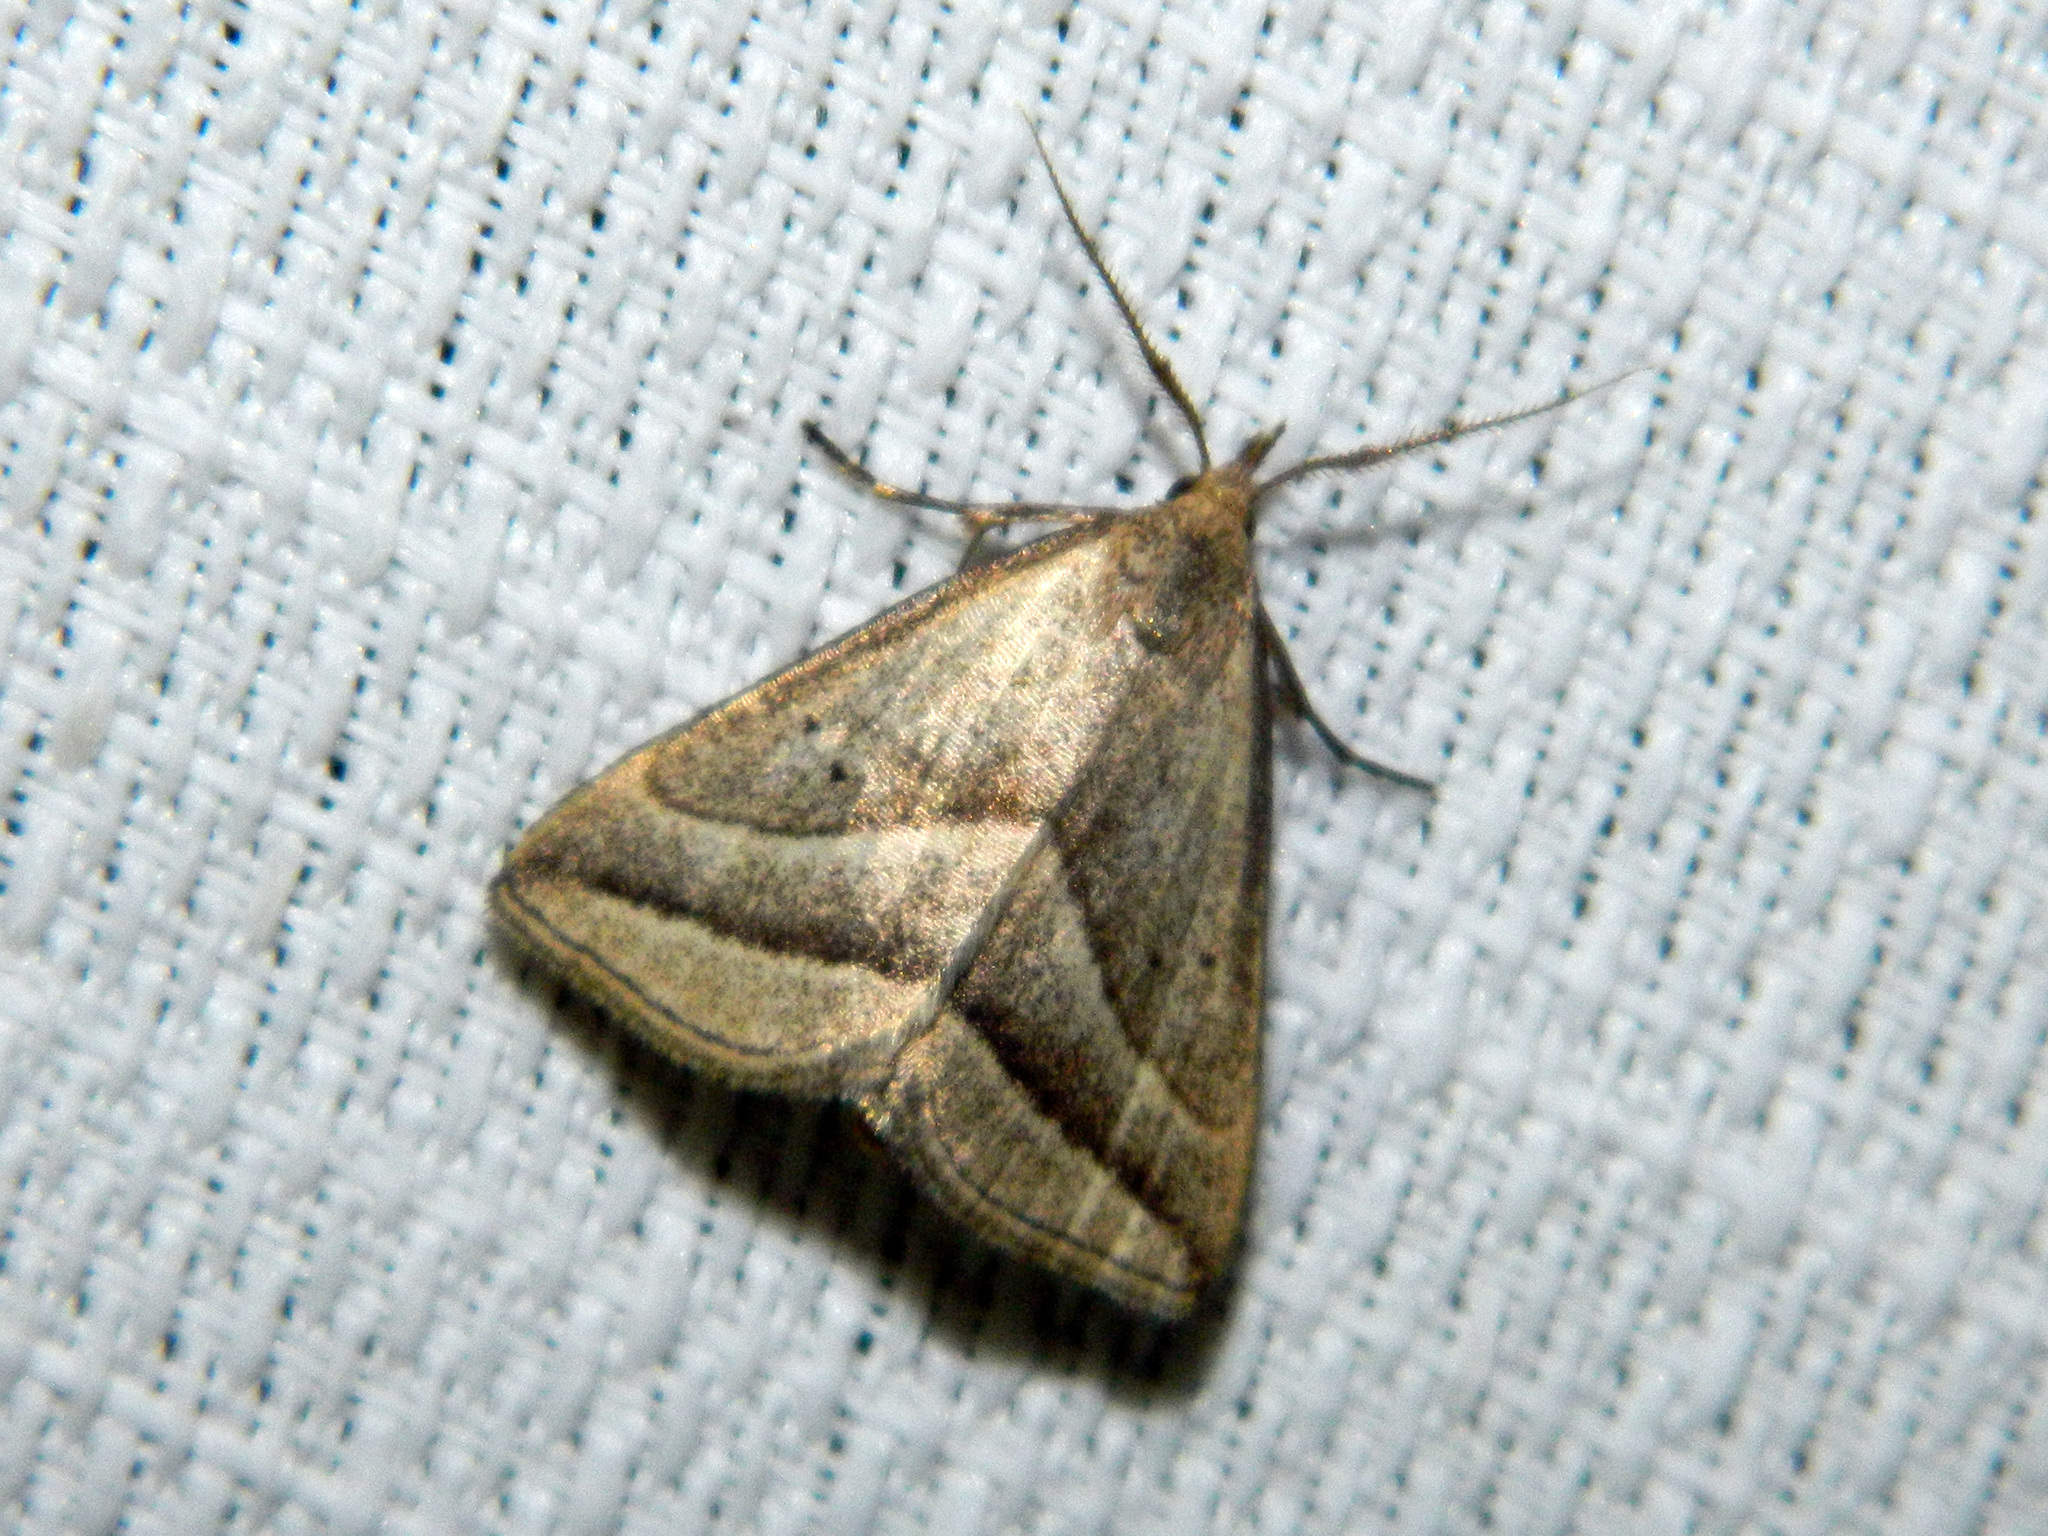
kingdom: Animalia
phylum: Arthropoda
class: Insecta
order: Lepidoptera
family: Erebidae
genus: Macrochilo
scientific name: Macrochilo absorptalis
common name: Slant-lined owlet
